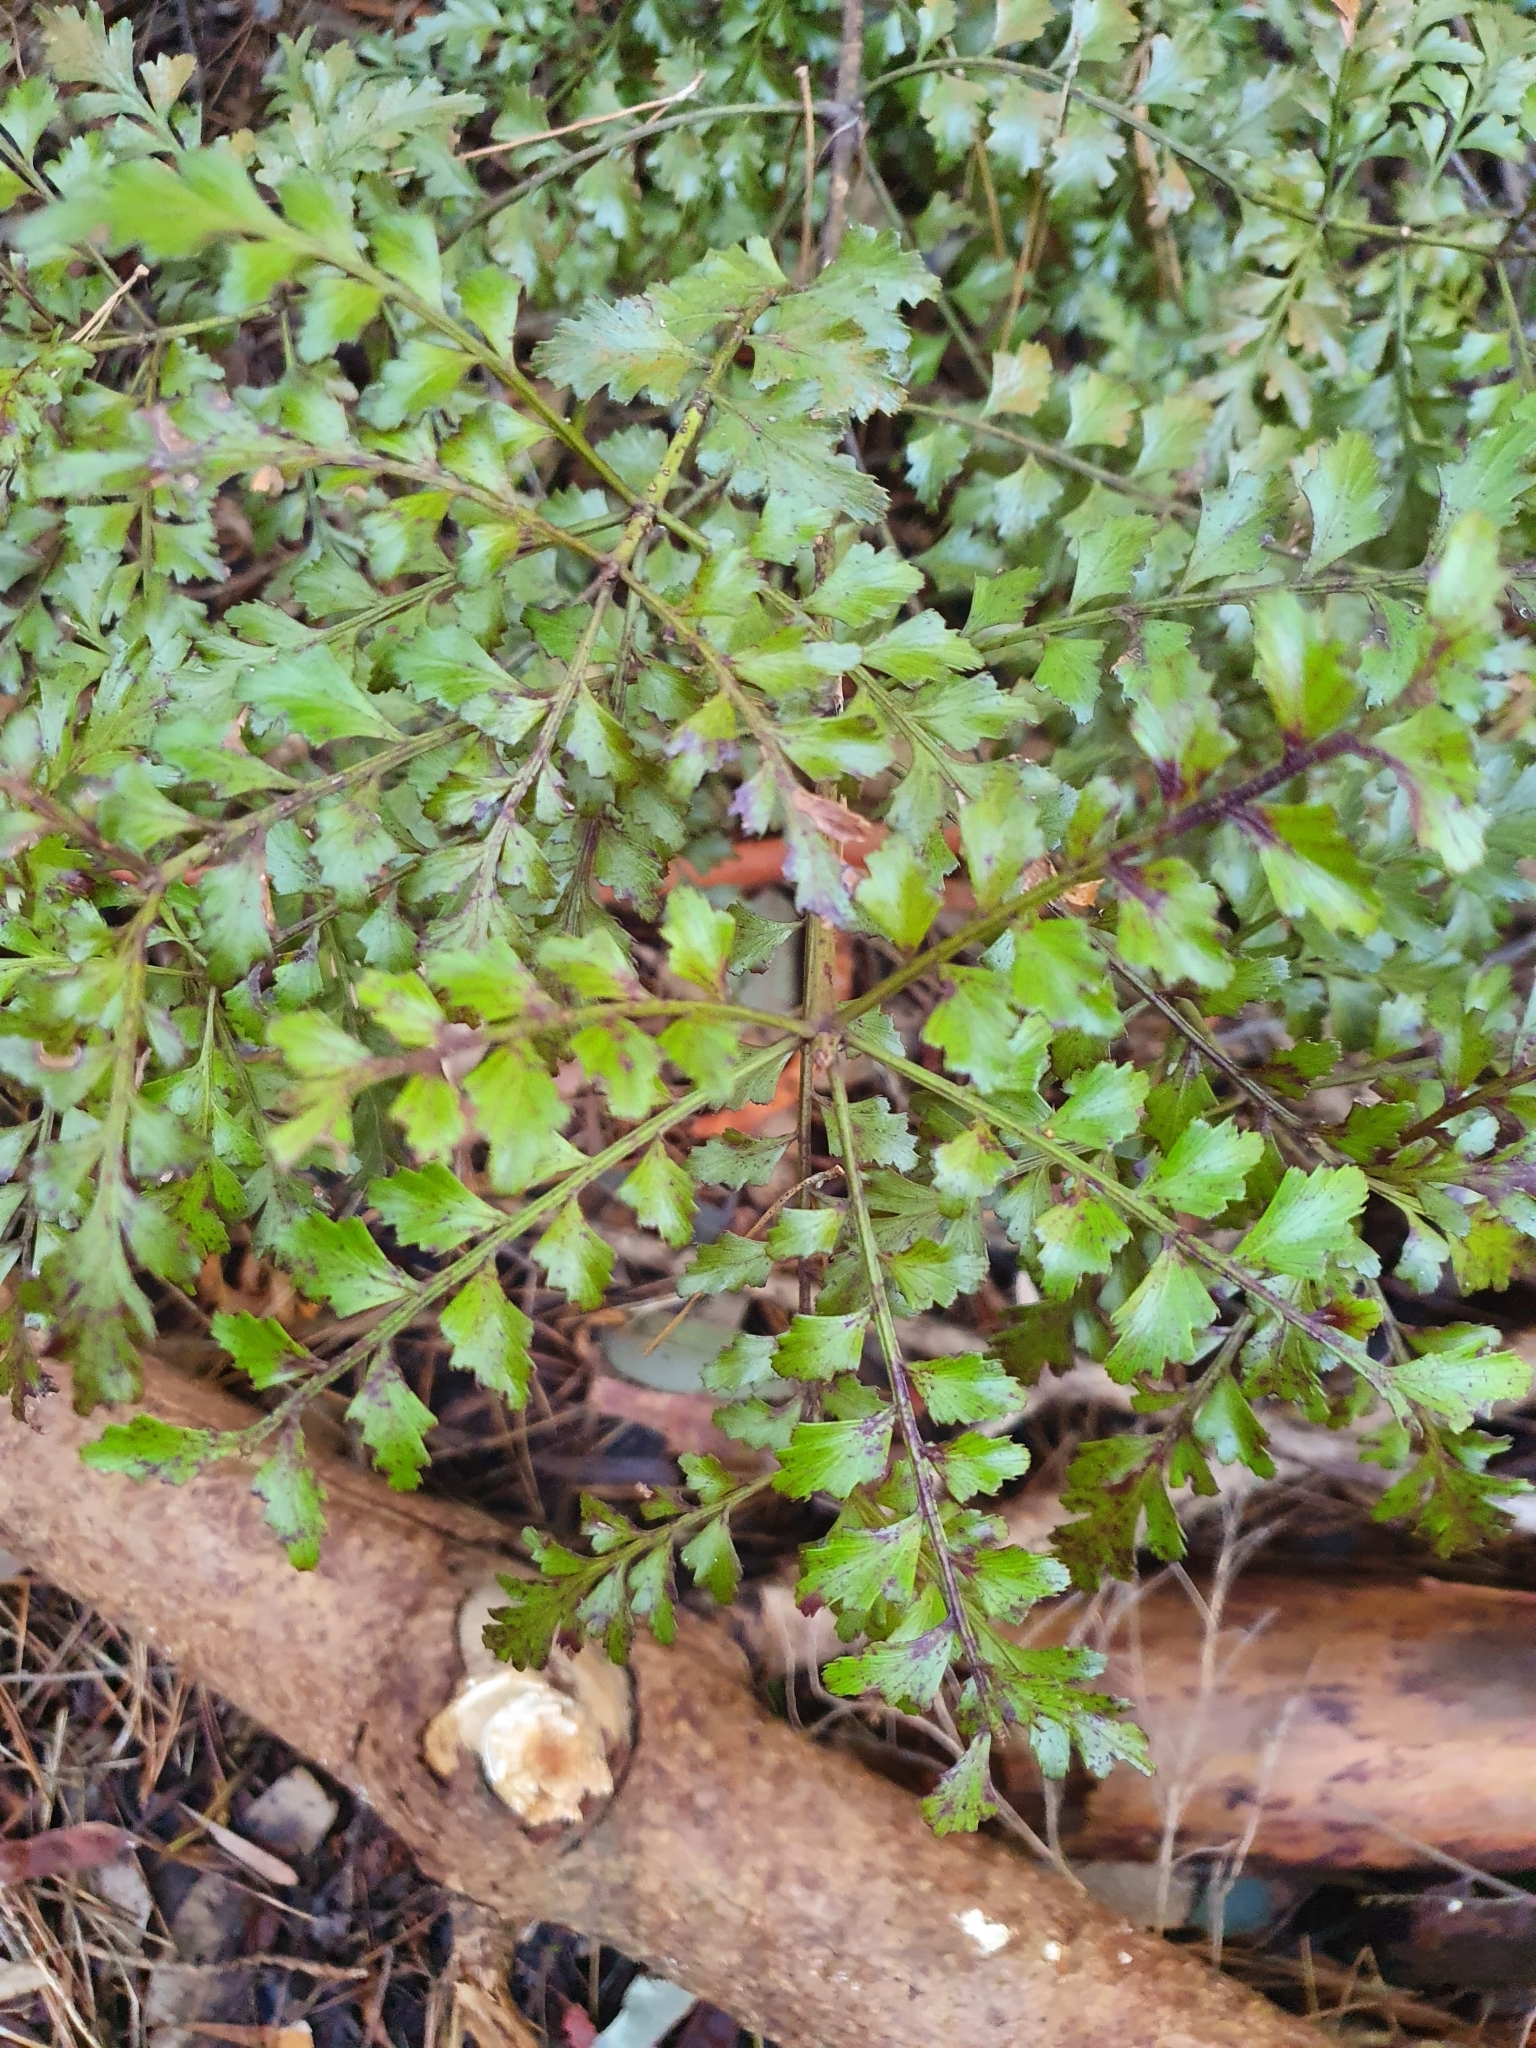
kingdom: Plantae
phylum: Tracheophyta
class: Pinopsida
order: Pinales
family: Phyllocladaceae
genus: Phyllocladus
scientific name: Phyllocladus trichomanoides
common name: Celery pine
